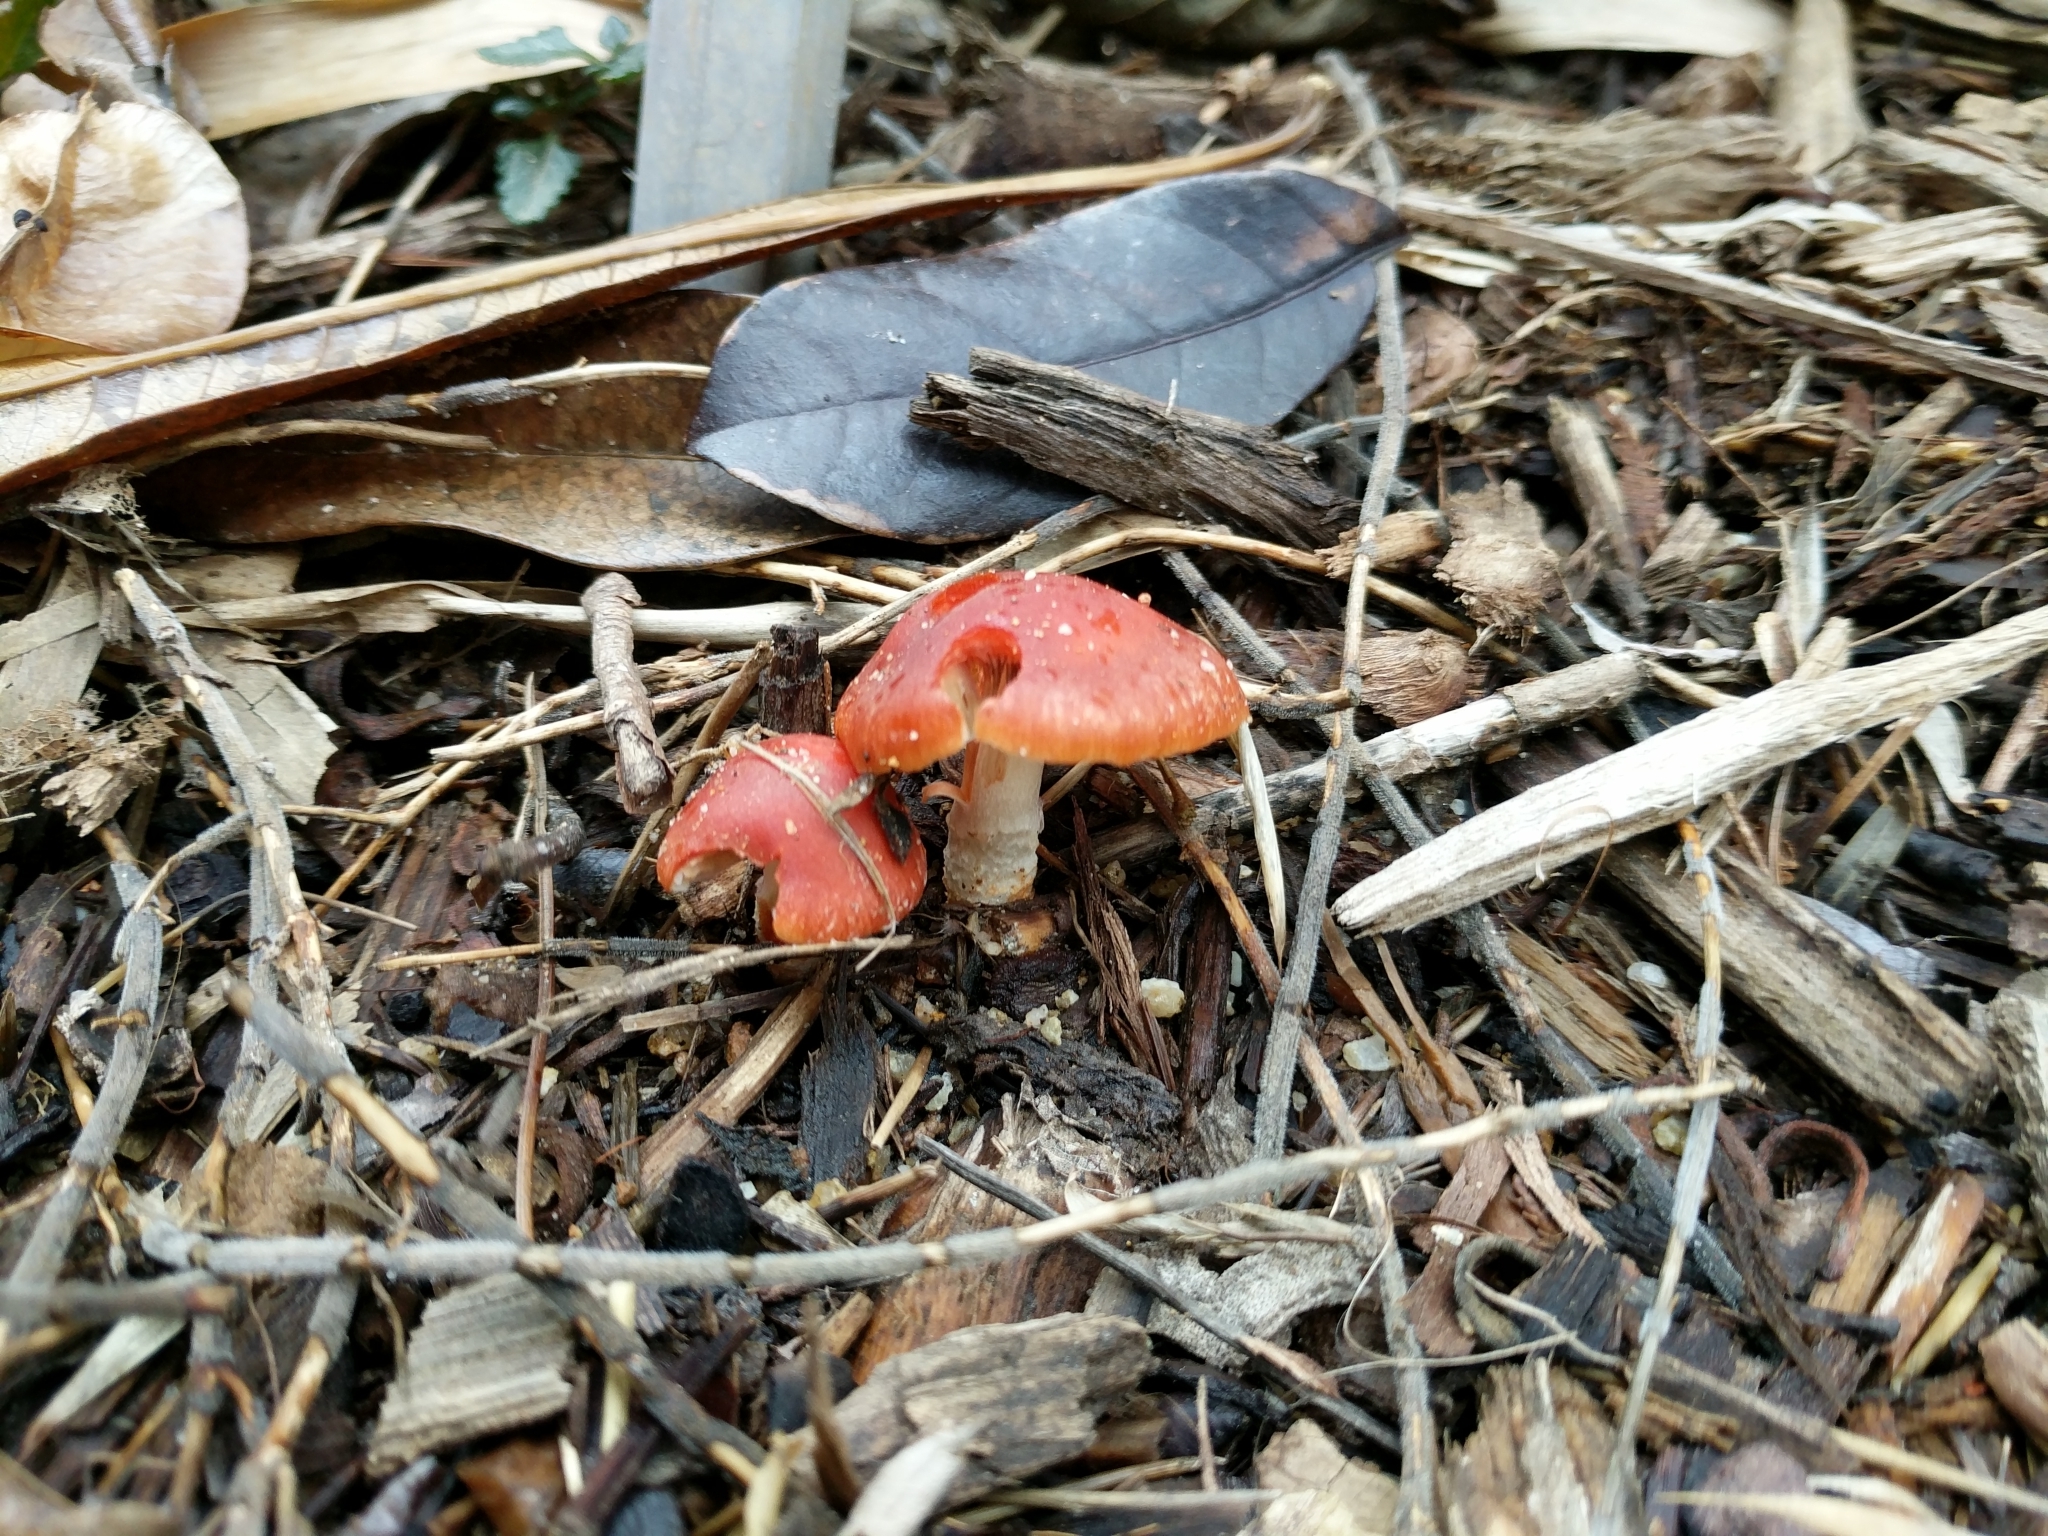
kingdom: Fungi
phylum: Basidiomycota
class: Agaricomycetes
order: Agaricales
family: Strophariaceae
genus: Leratiomyces
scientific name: Leratiomyces ceres
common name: Redlead roundhead
